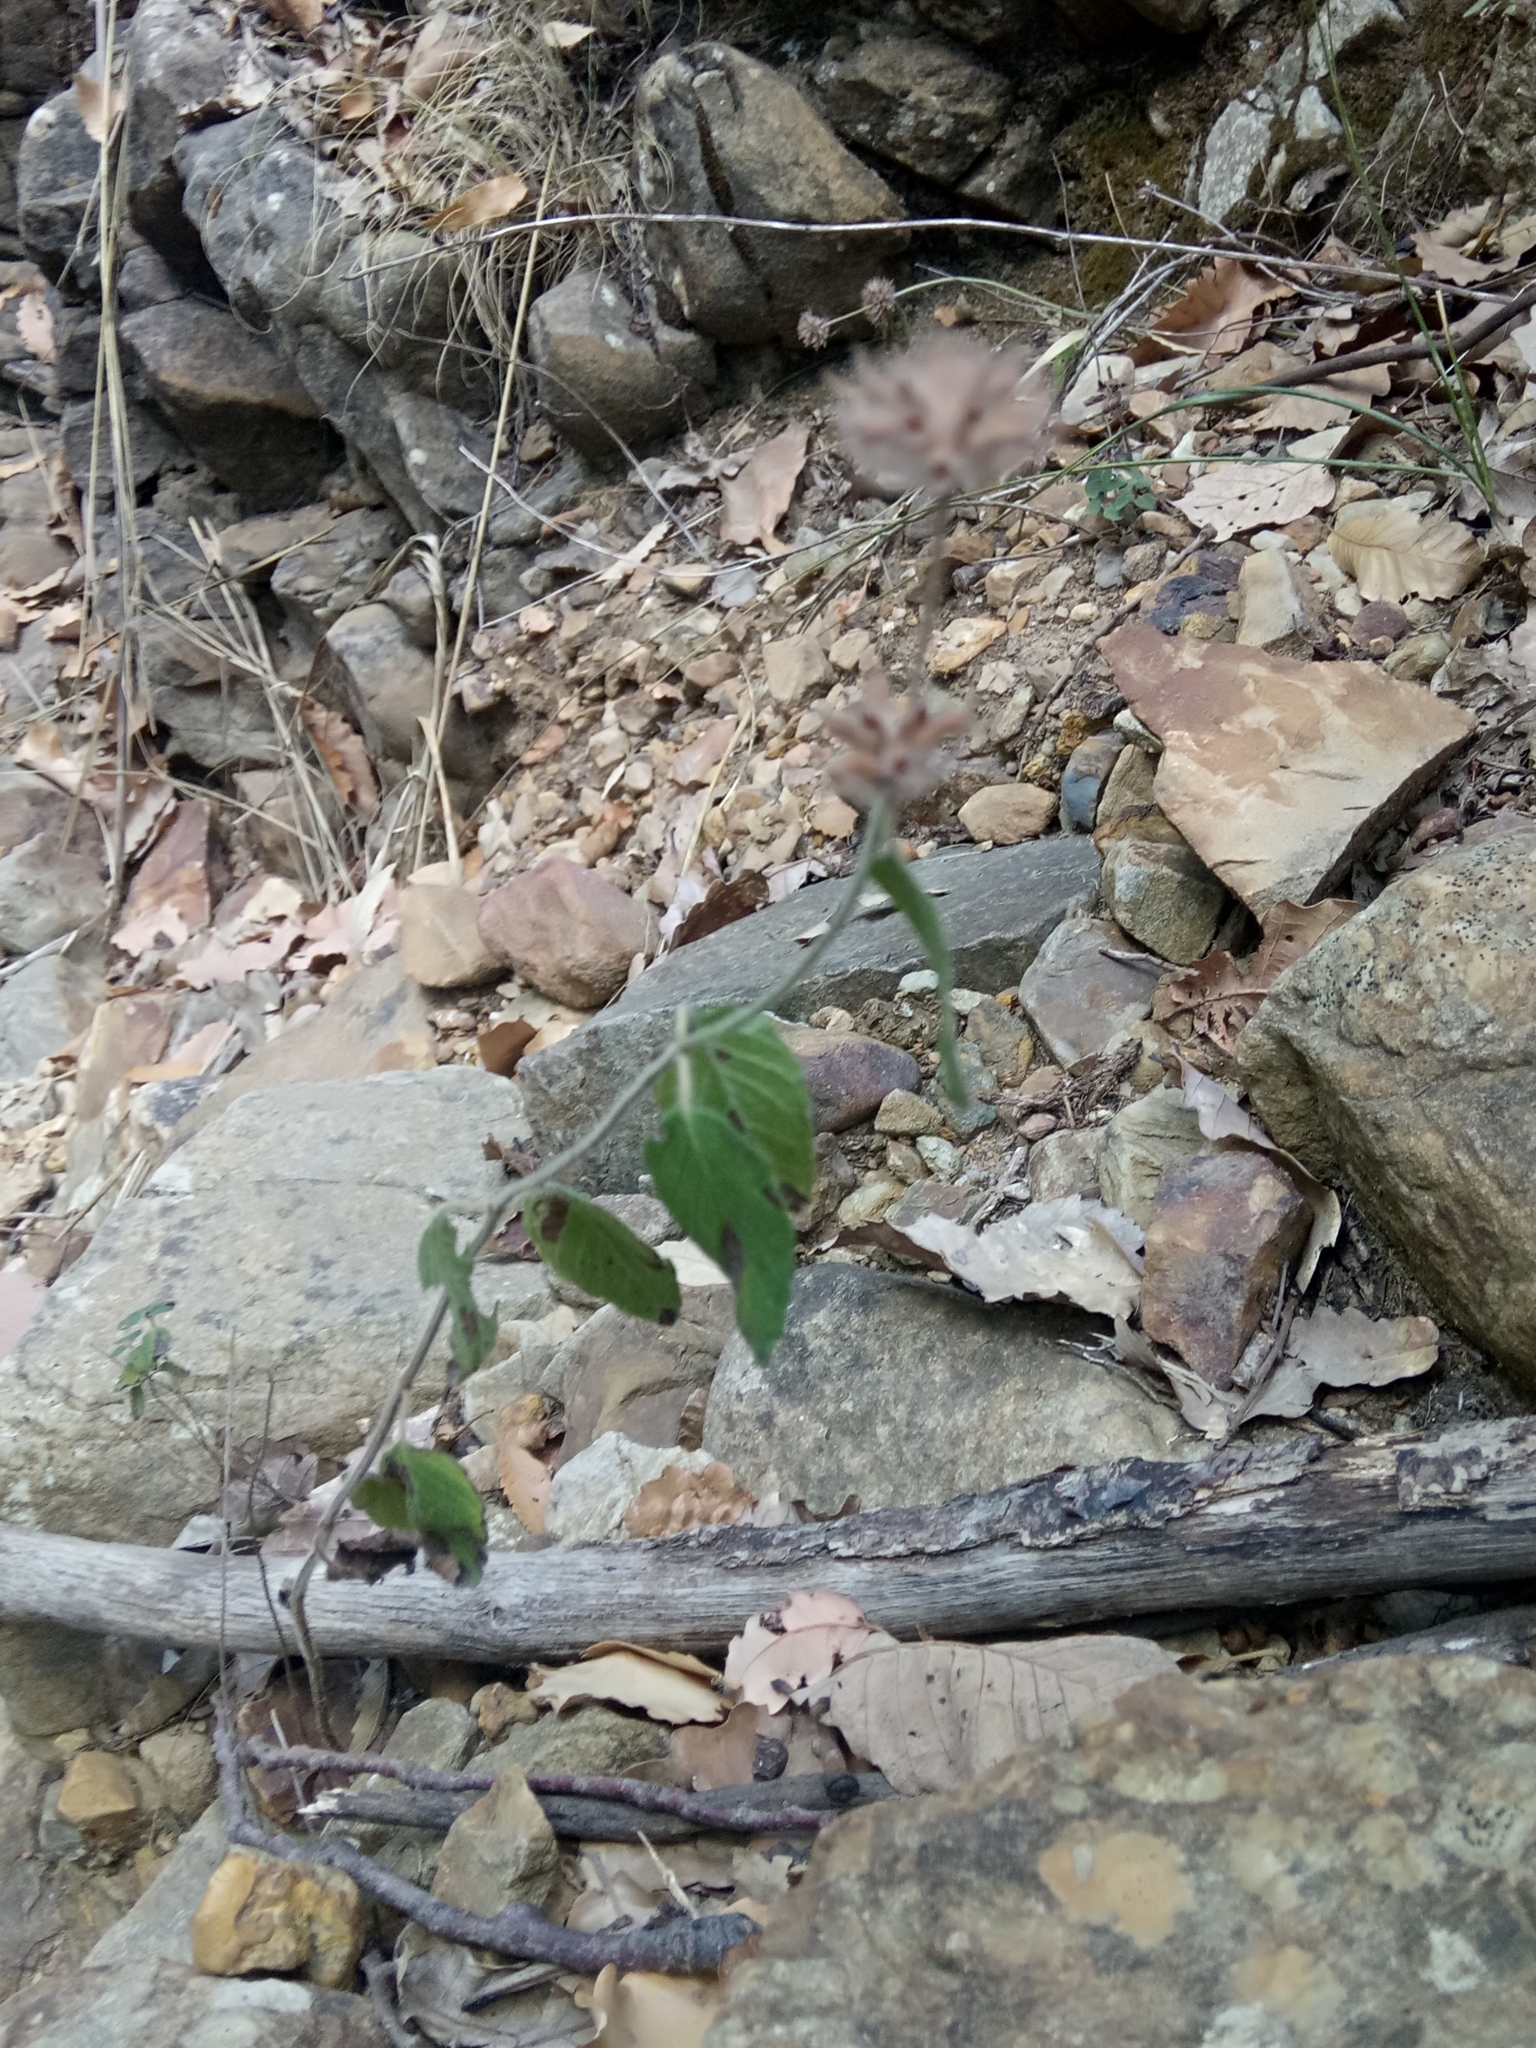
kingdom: Plantae
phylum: Tracheophyta
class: Magnoliopsida
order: Lamiales
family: Lamiaceae
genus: Clinopodium
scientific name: Clinopodium vulgare
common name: Wild basil
